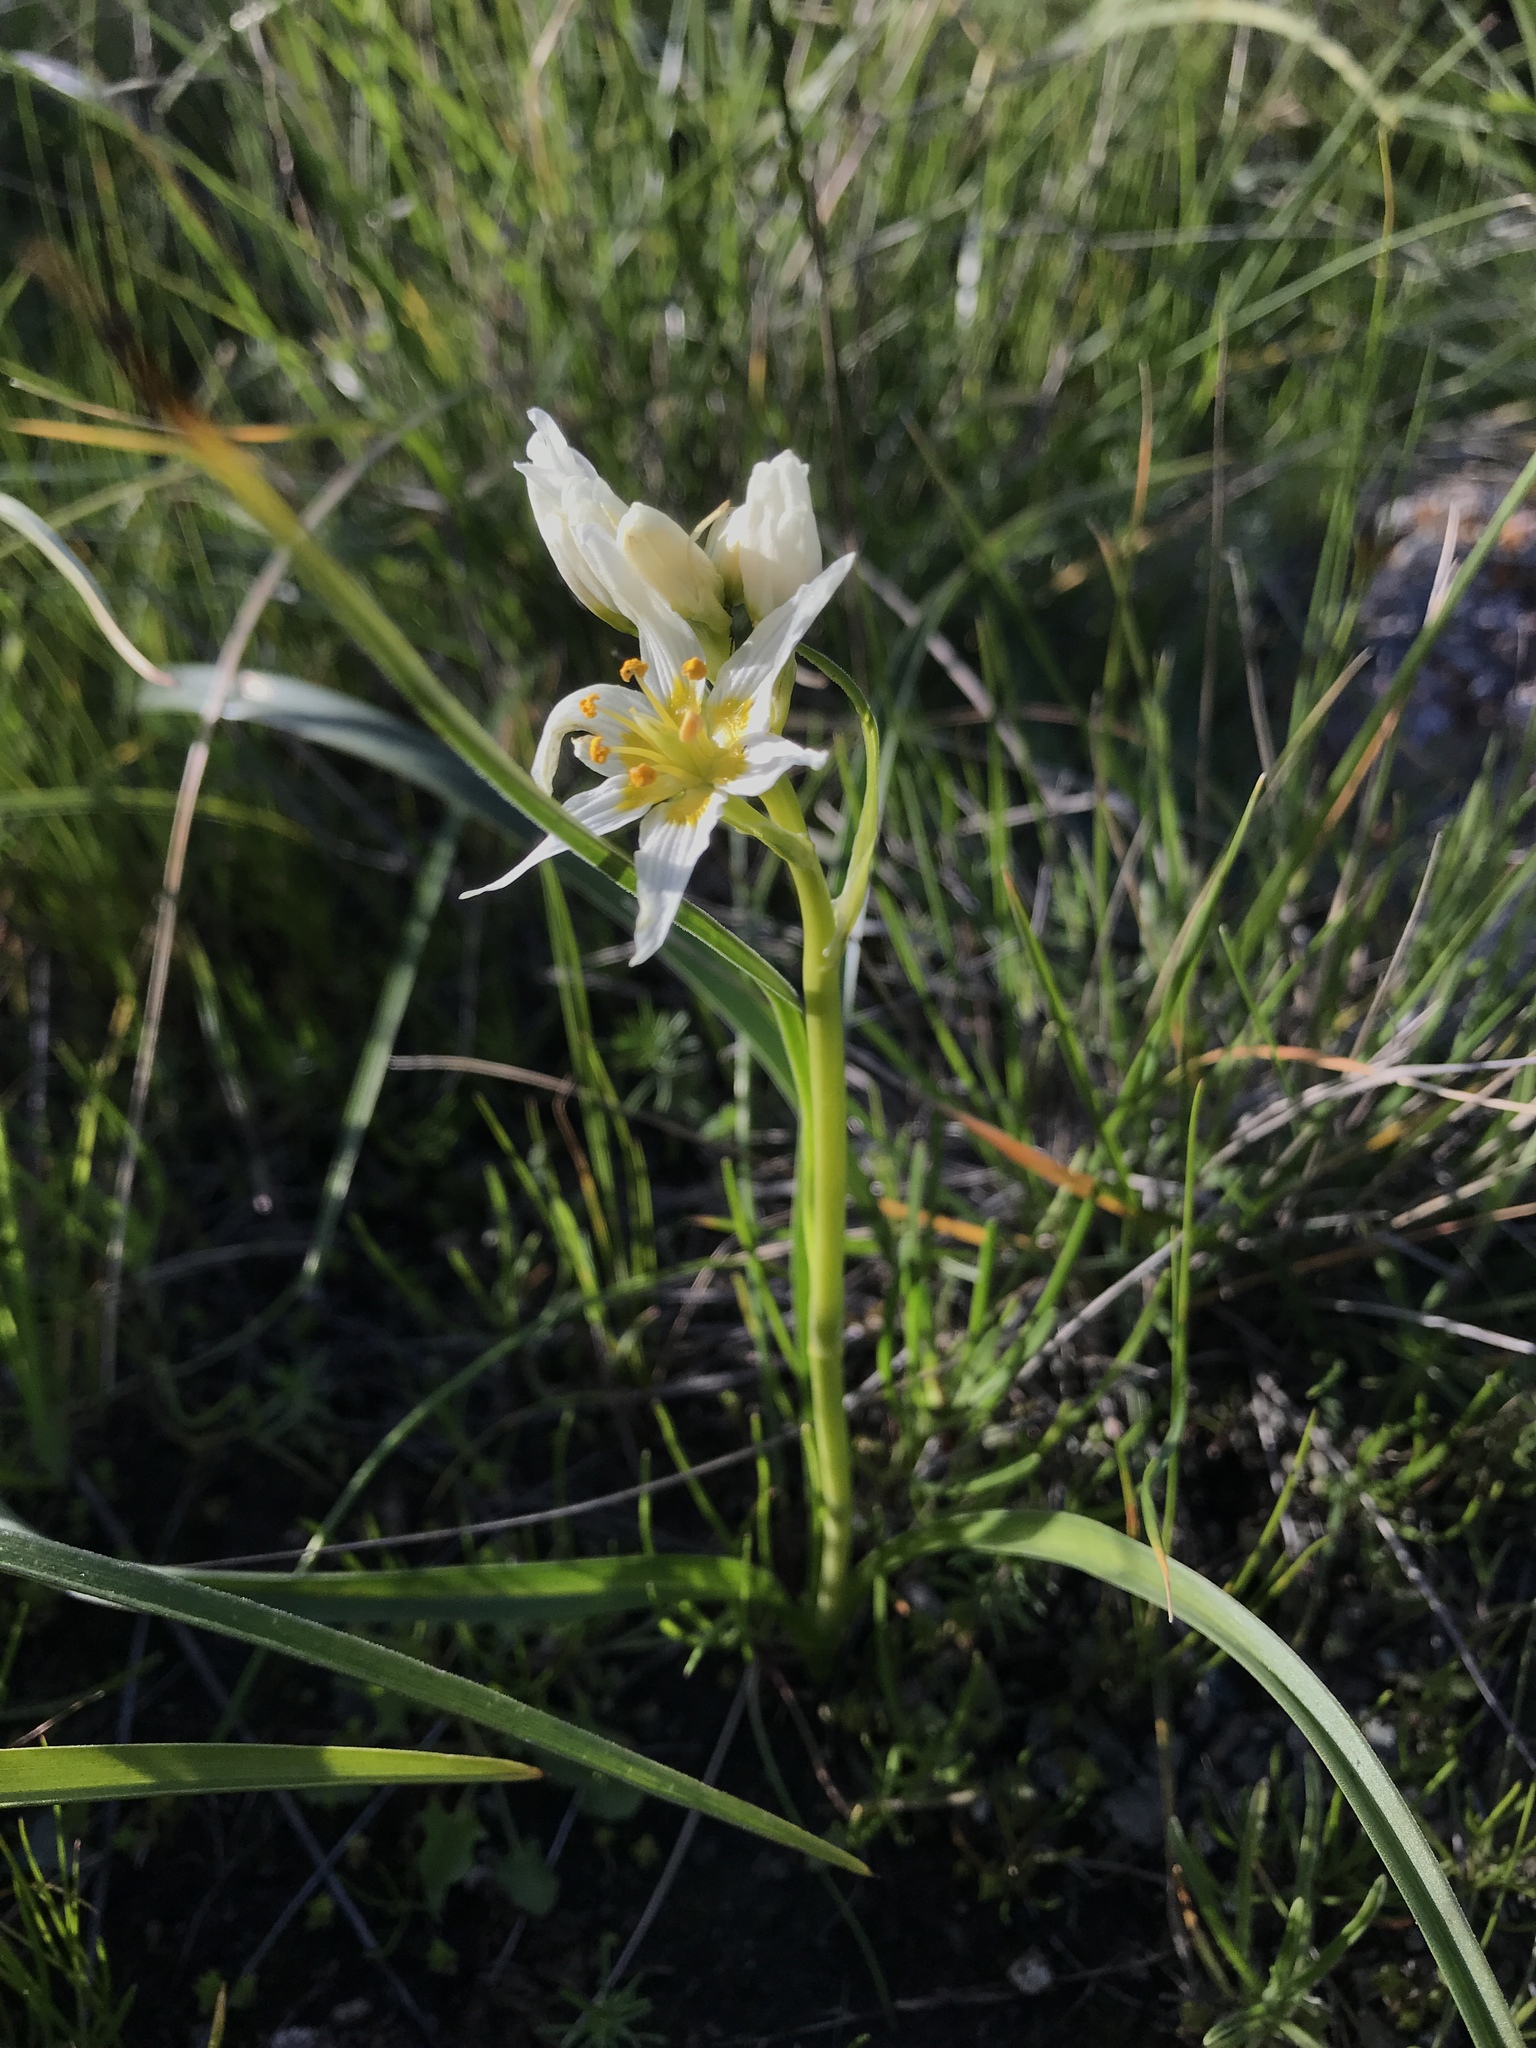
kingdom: Plantae
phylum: Tracheophyta
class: Liliopsida
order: Liliales
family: Melanthiaceae
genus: Toxicoscordion
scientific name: Toxicoscordion fremontii
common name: Fremont's death camas
